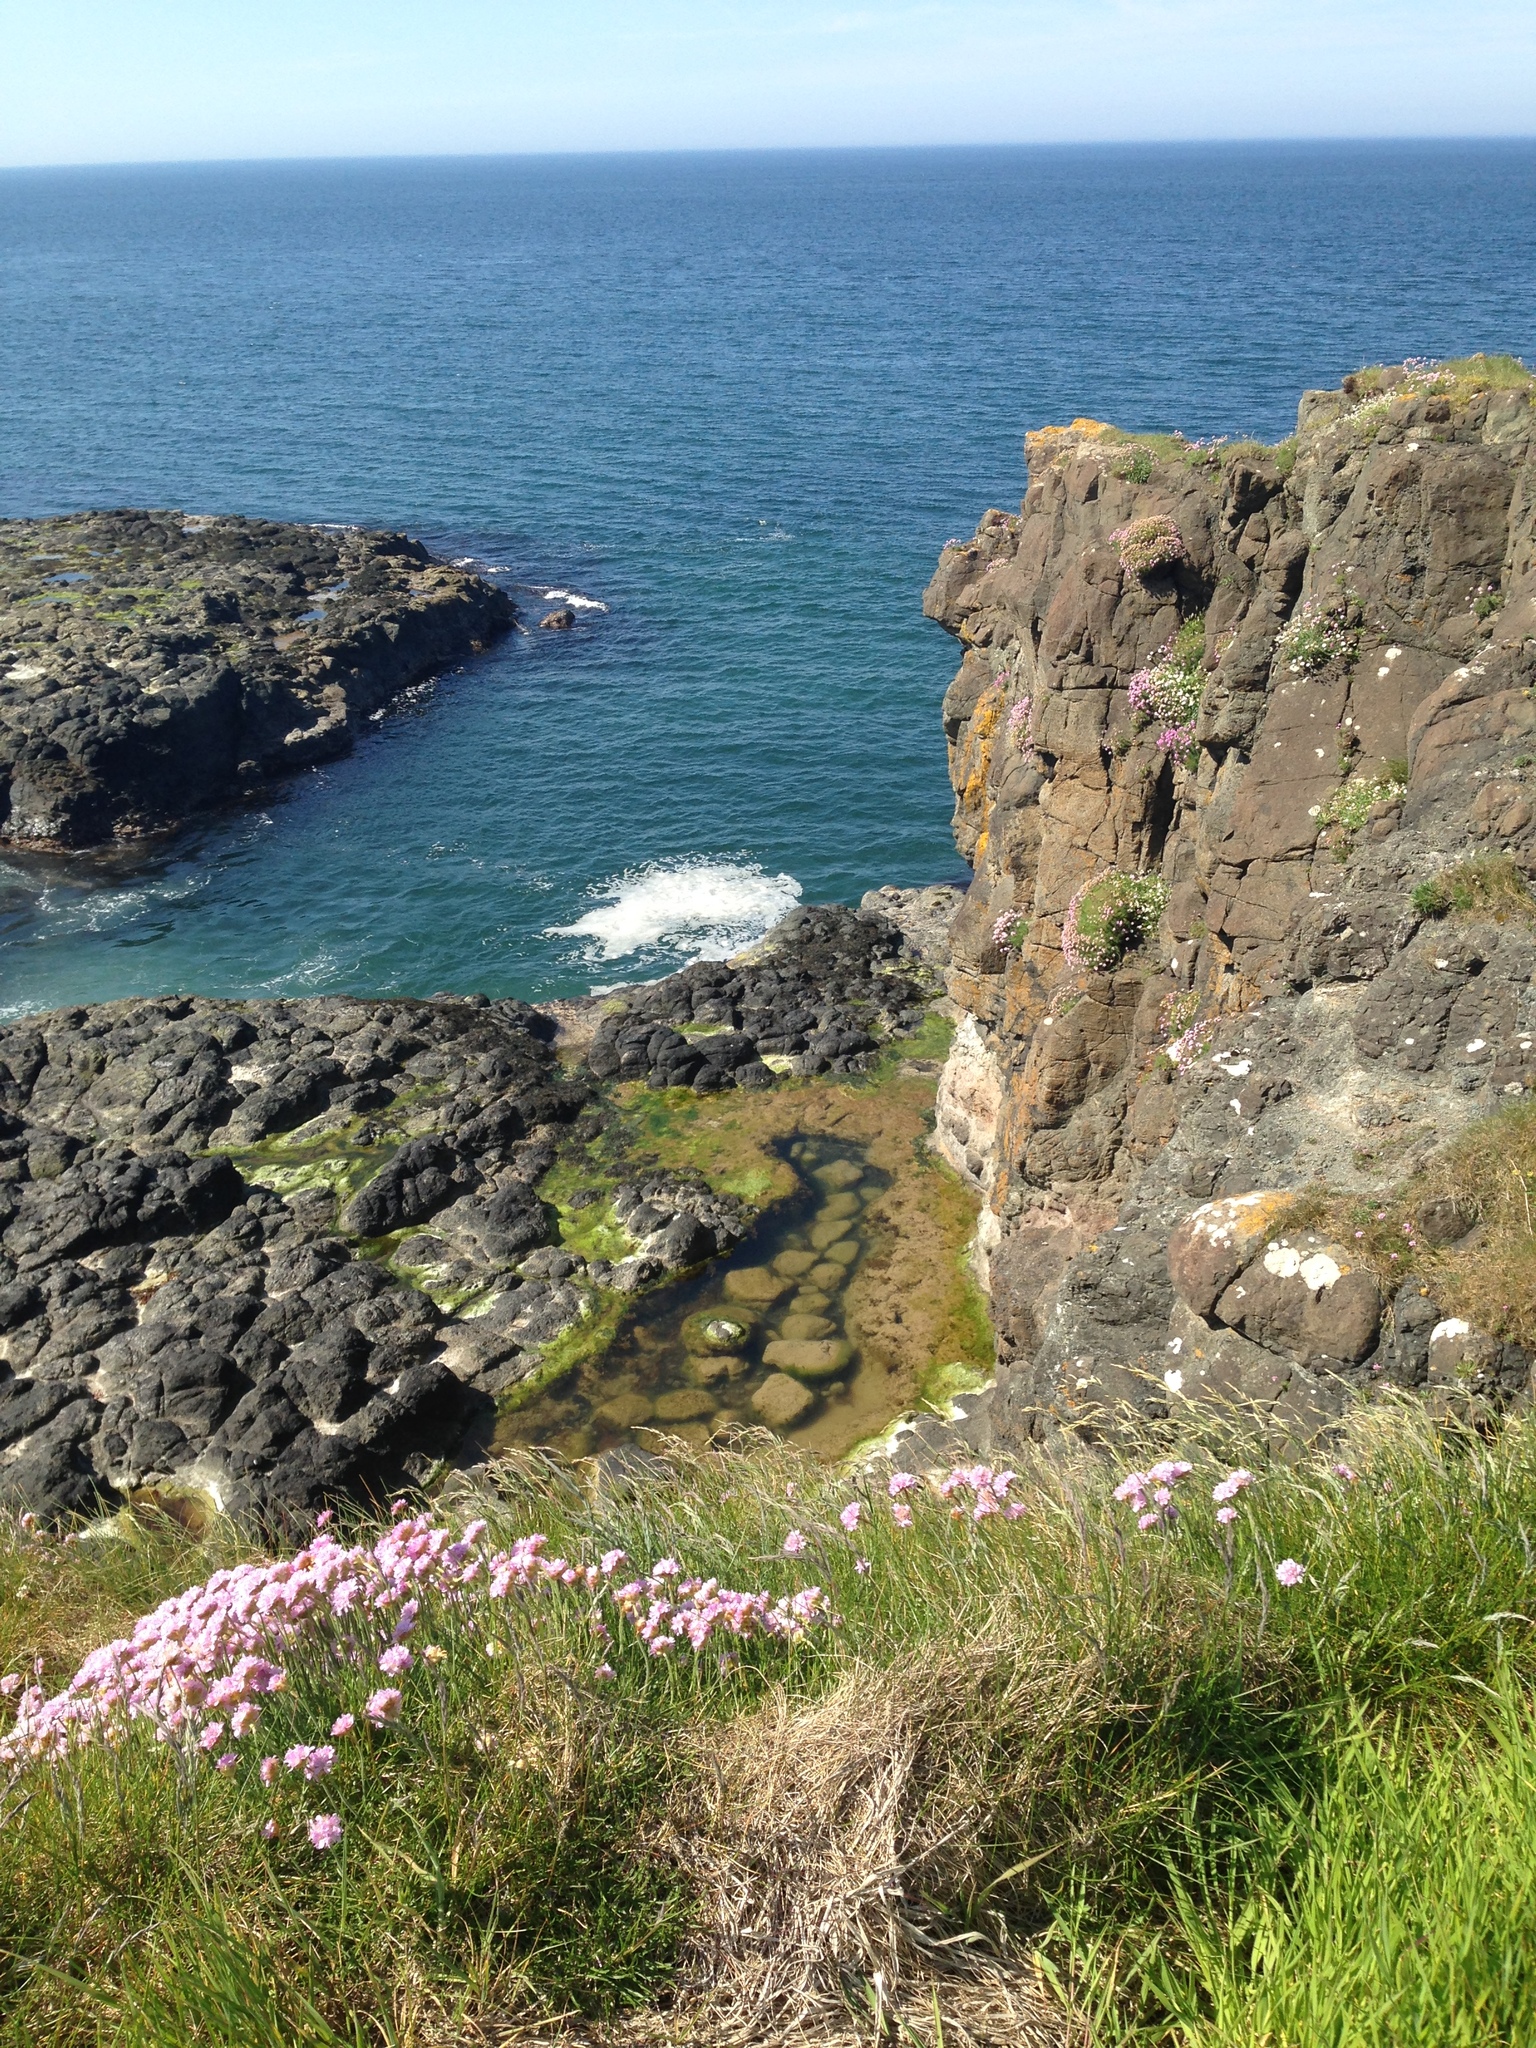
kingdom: Plantae
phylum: Tracheophyta
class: Magnoliopsida
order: Caryophyllales
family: Plumbaginaceae
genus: Armeria
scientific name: Armeria maritima
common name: Thrift
